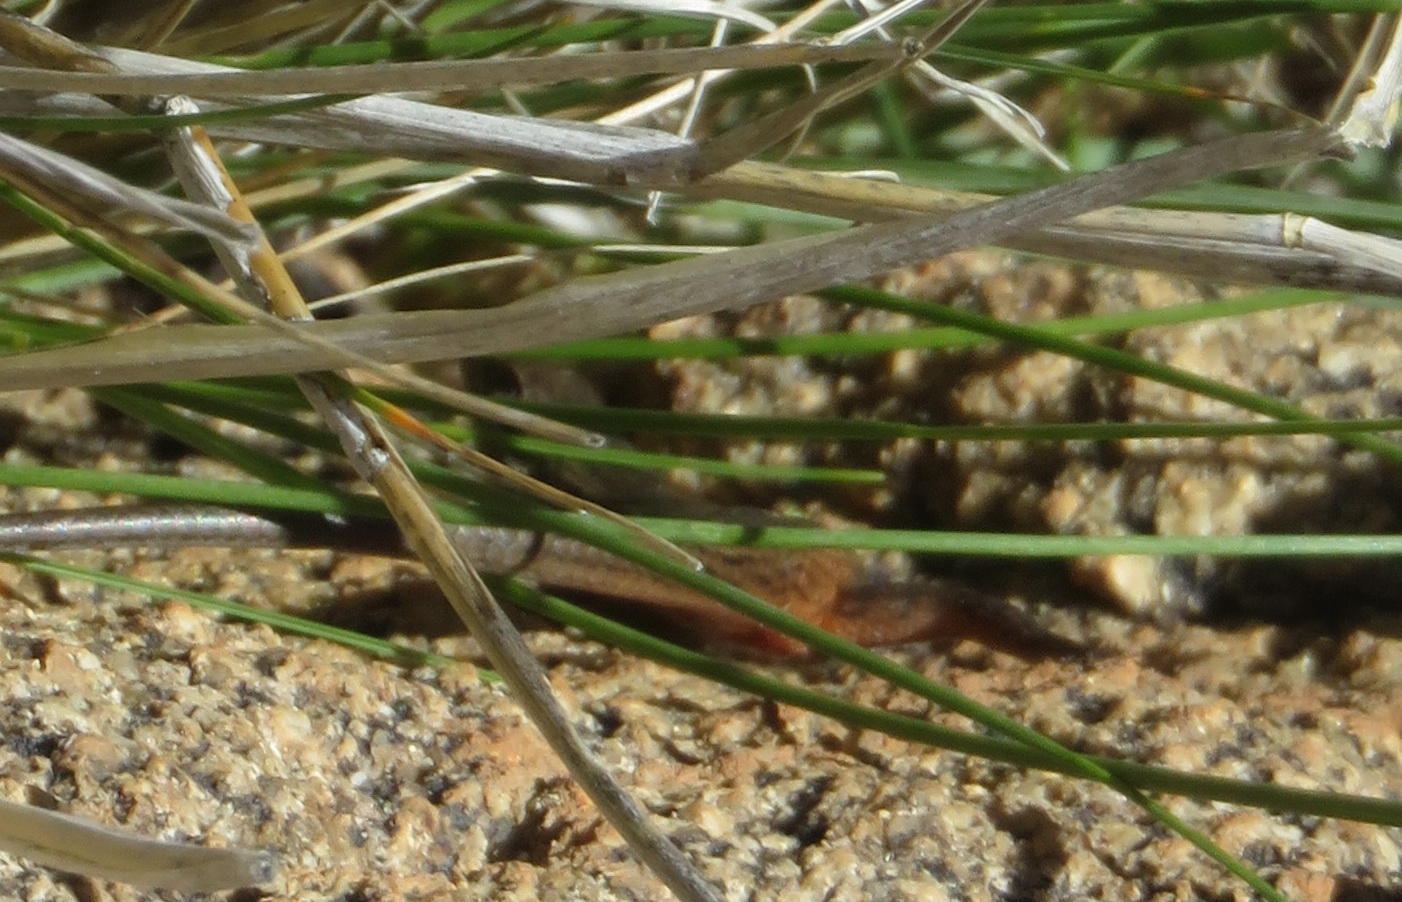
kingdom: Animalia
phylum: Chordata
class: Squamata
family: Scincidae
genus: Trachylepis
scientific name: Trachylepis variegata
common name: Variegated skink
